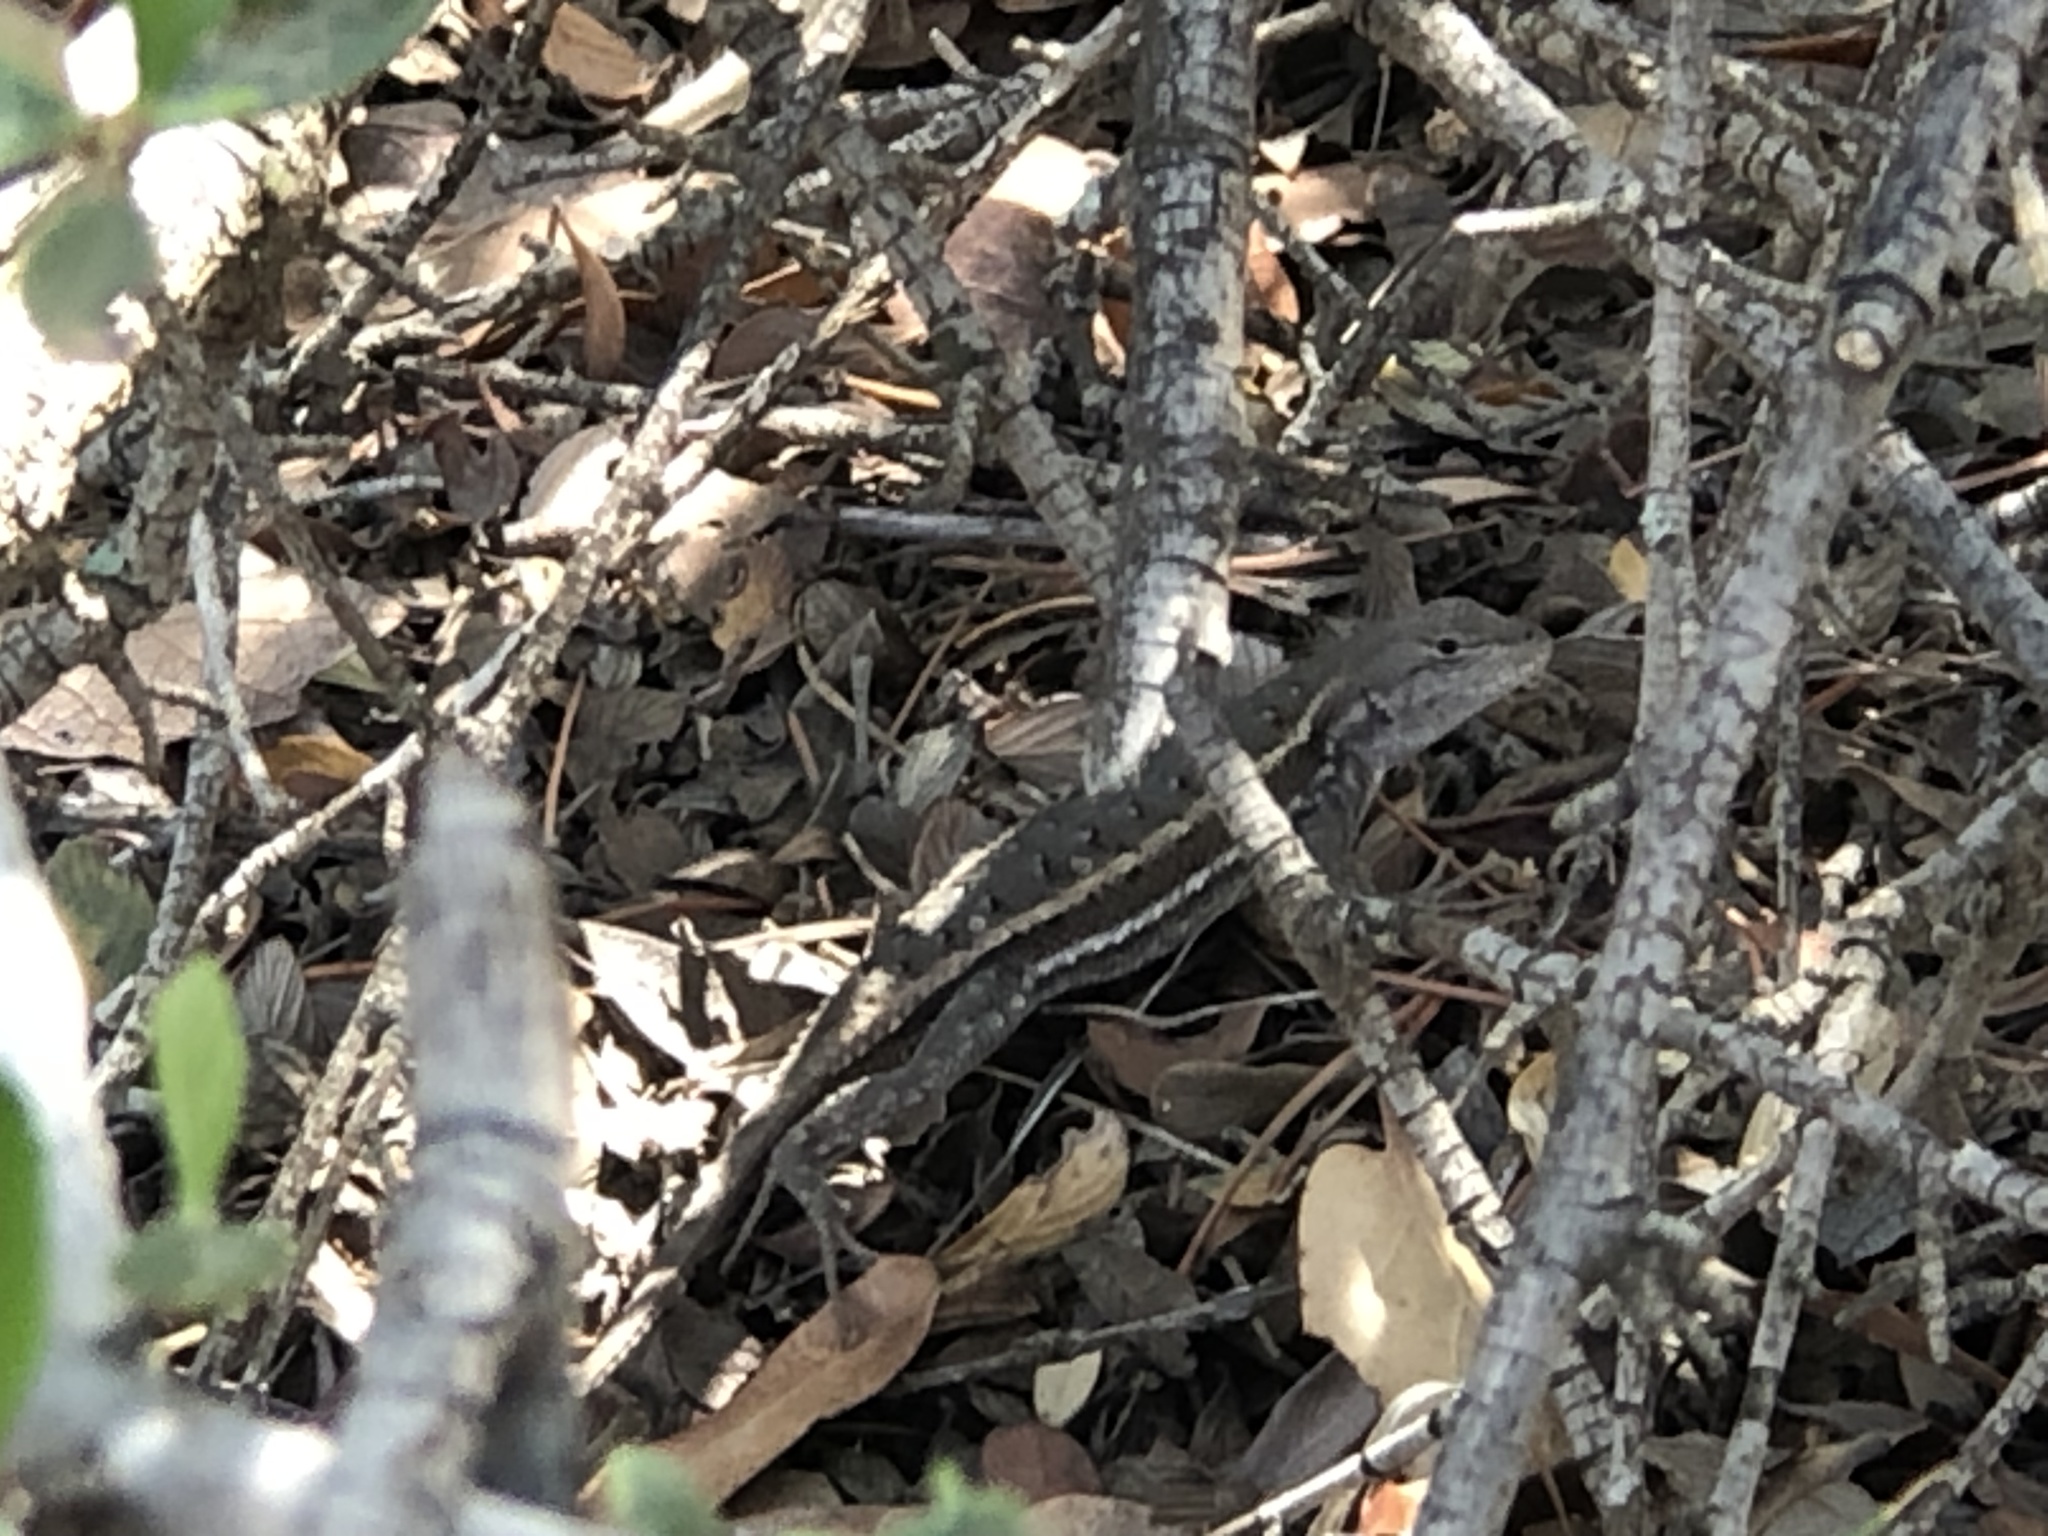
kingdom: Animalia
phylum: Chordata
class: Squamata
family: Phrynosomatidae
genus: Sceloporus
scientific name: Sceloporus virgatus
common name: Striped plateau lizard
